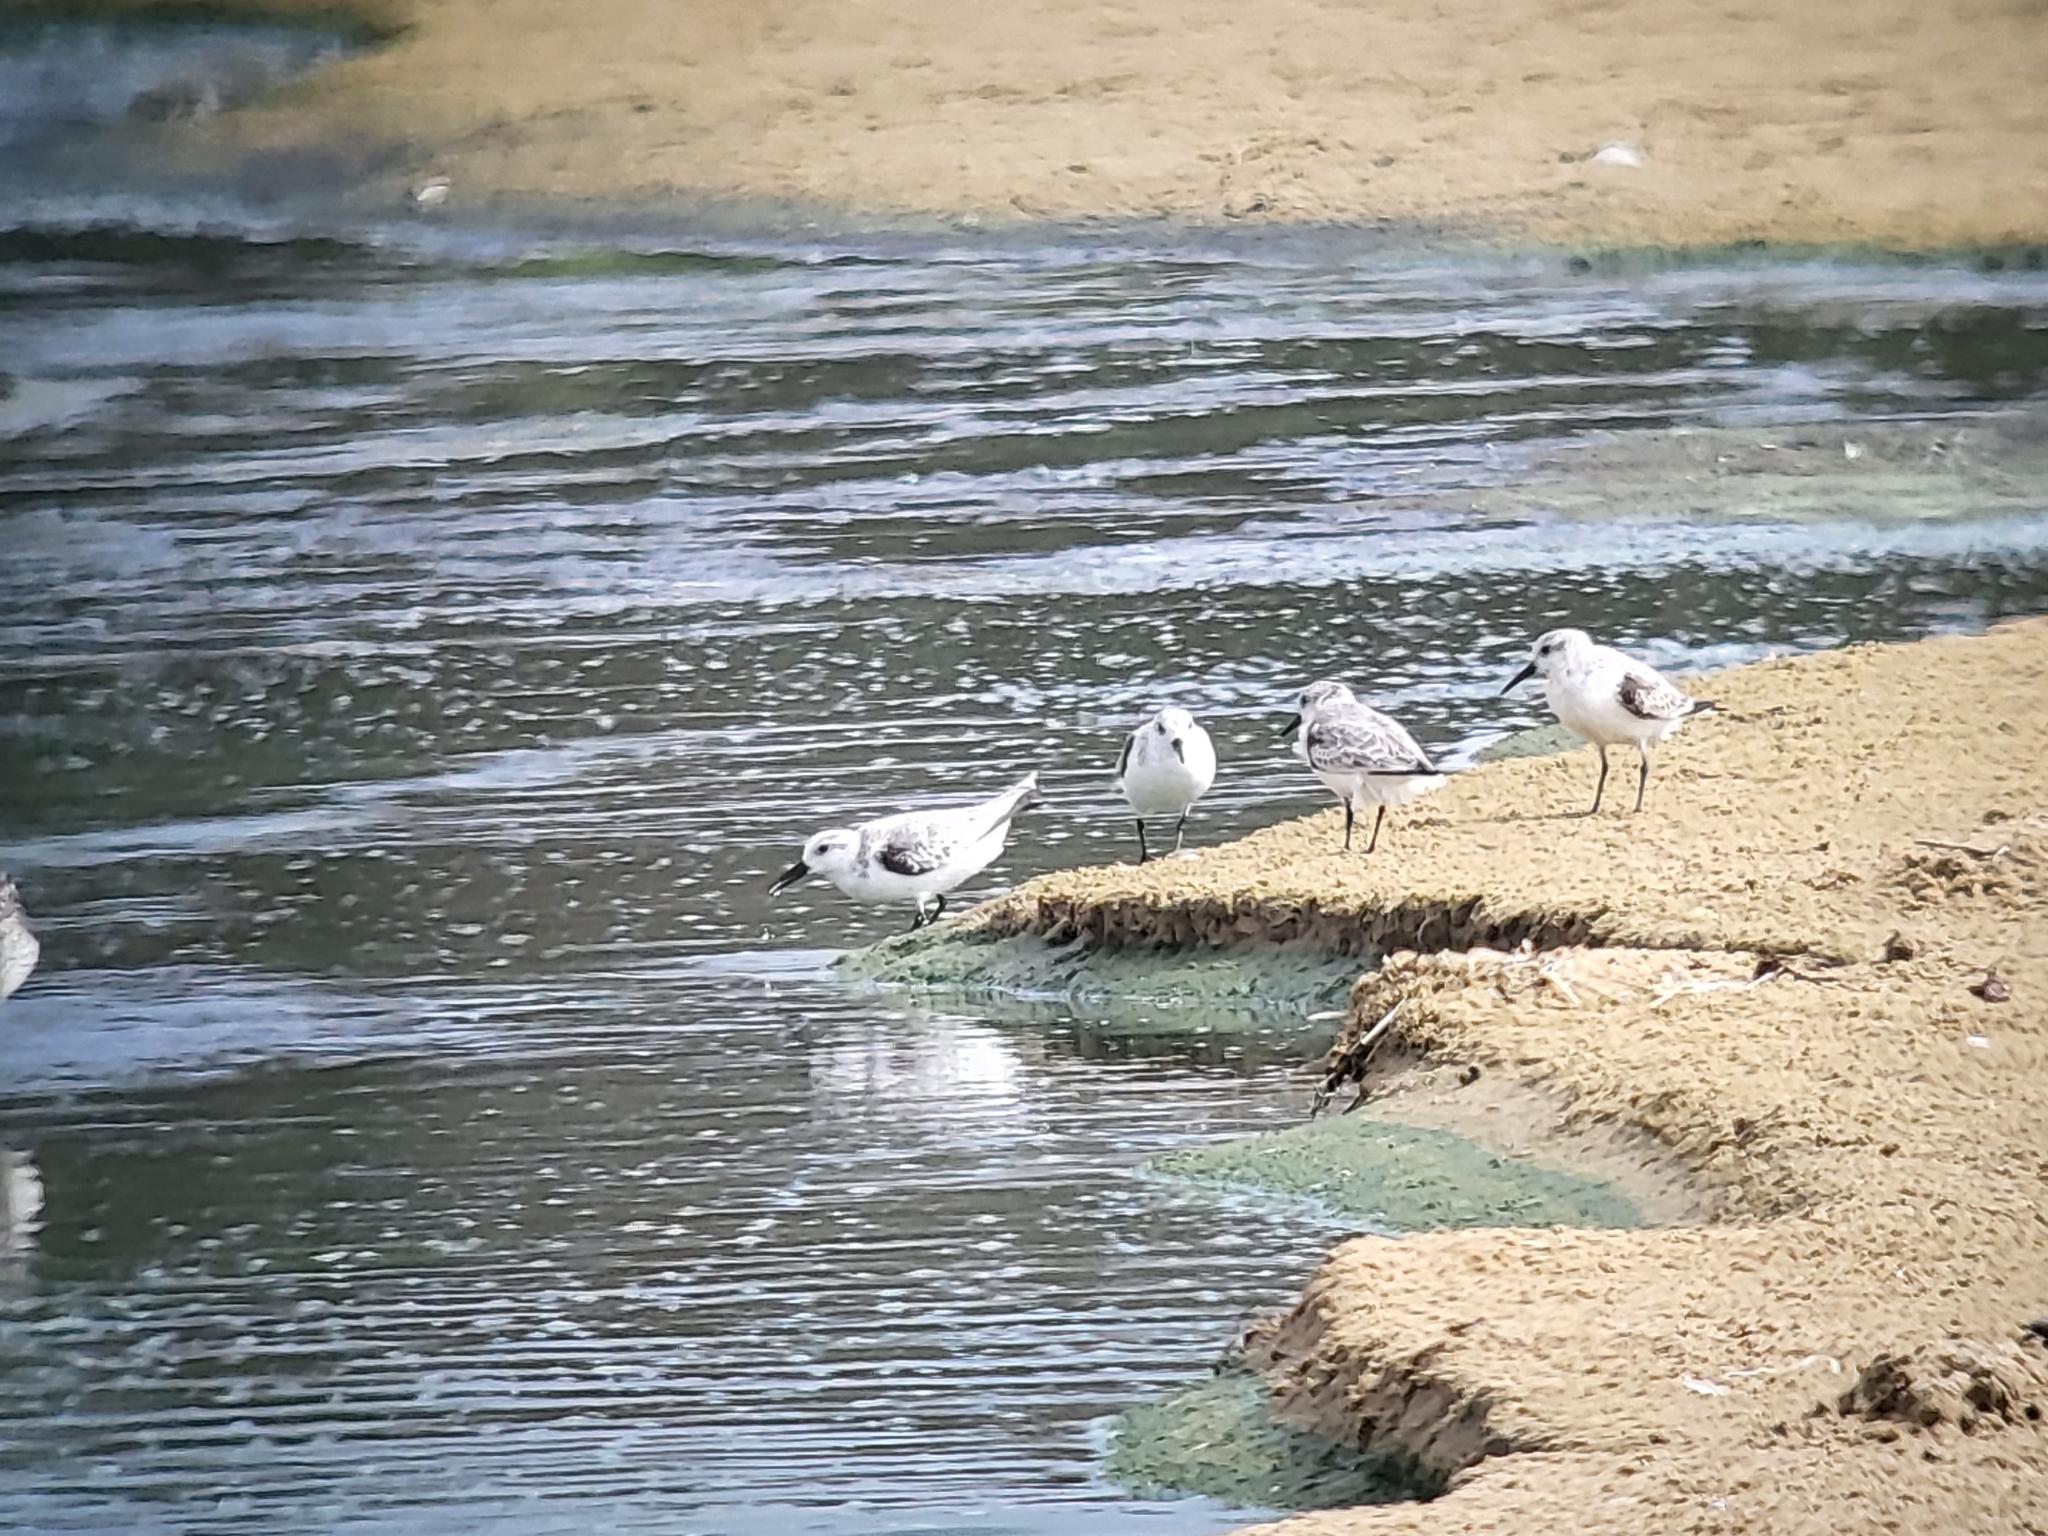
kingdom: Animalia
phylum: Chordata
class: Aves
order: Charadriiformes
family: Scolopacidae
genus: Calidris
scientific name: Calidris alba
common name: Sanderling
